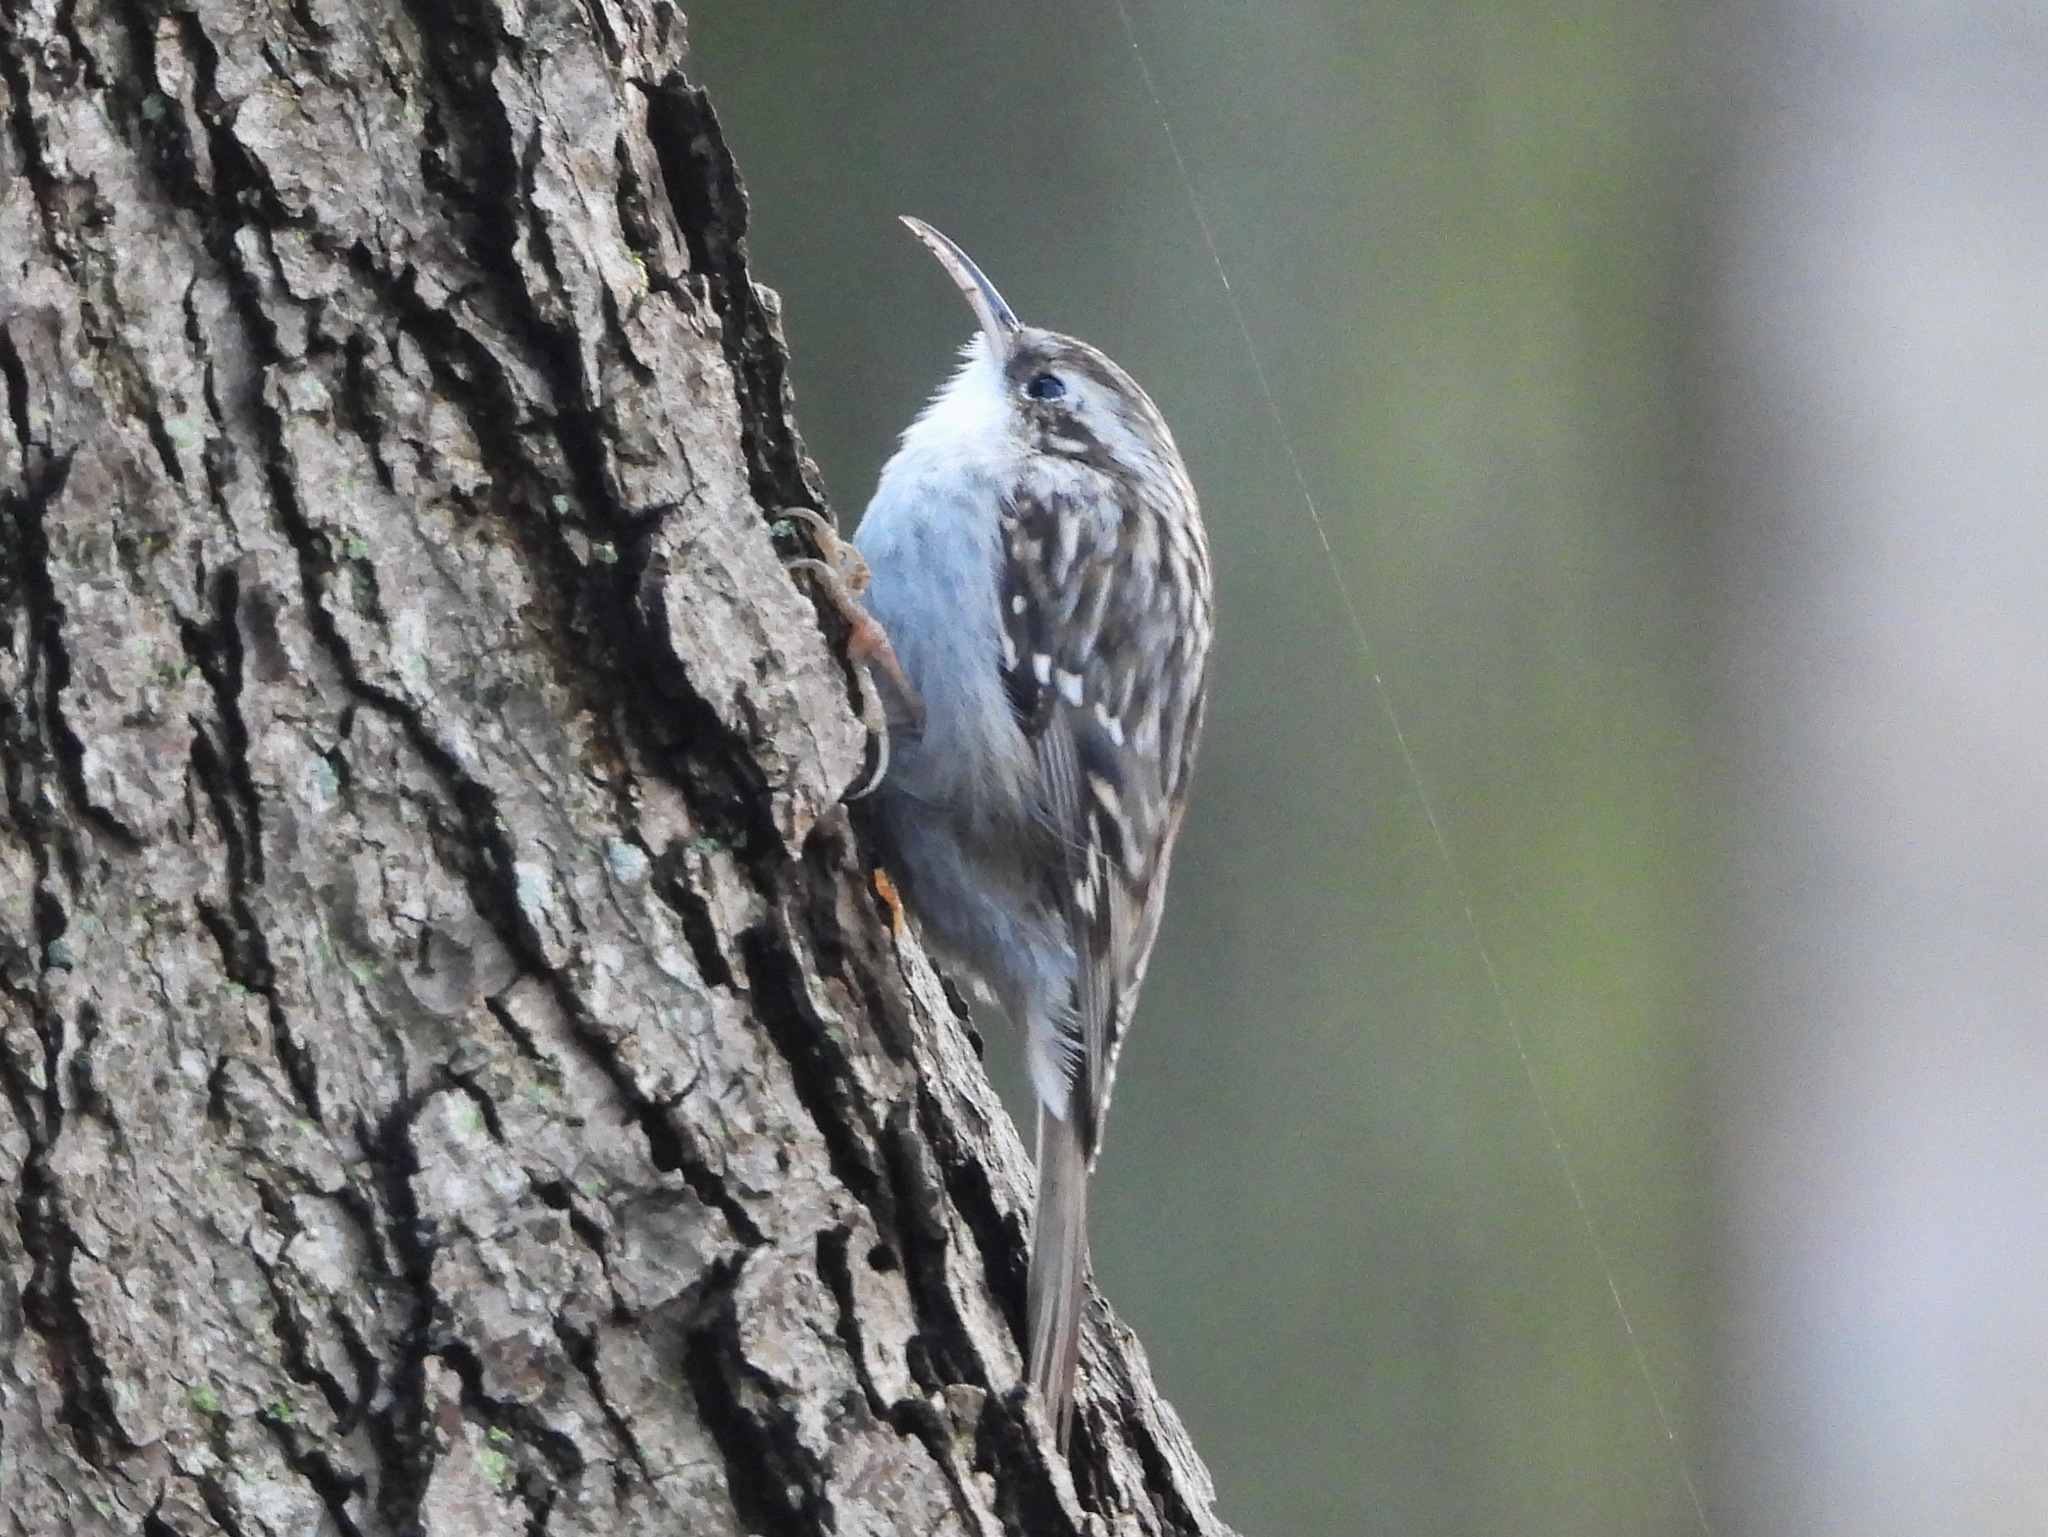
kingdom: Animalia
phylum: Chordata
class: Aves
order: Passeriformes
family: Certhiidae
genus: Certhia
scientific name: Certhia familiaris
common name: Eurasian treecreeper
